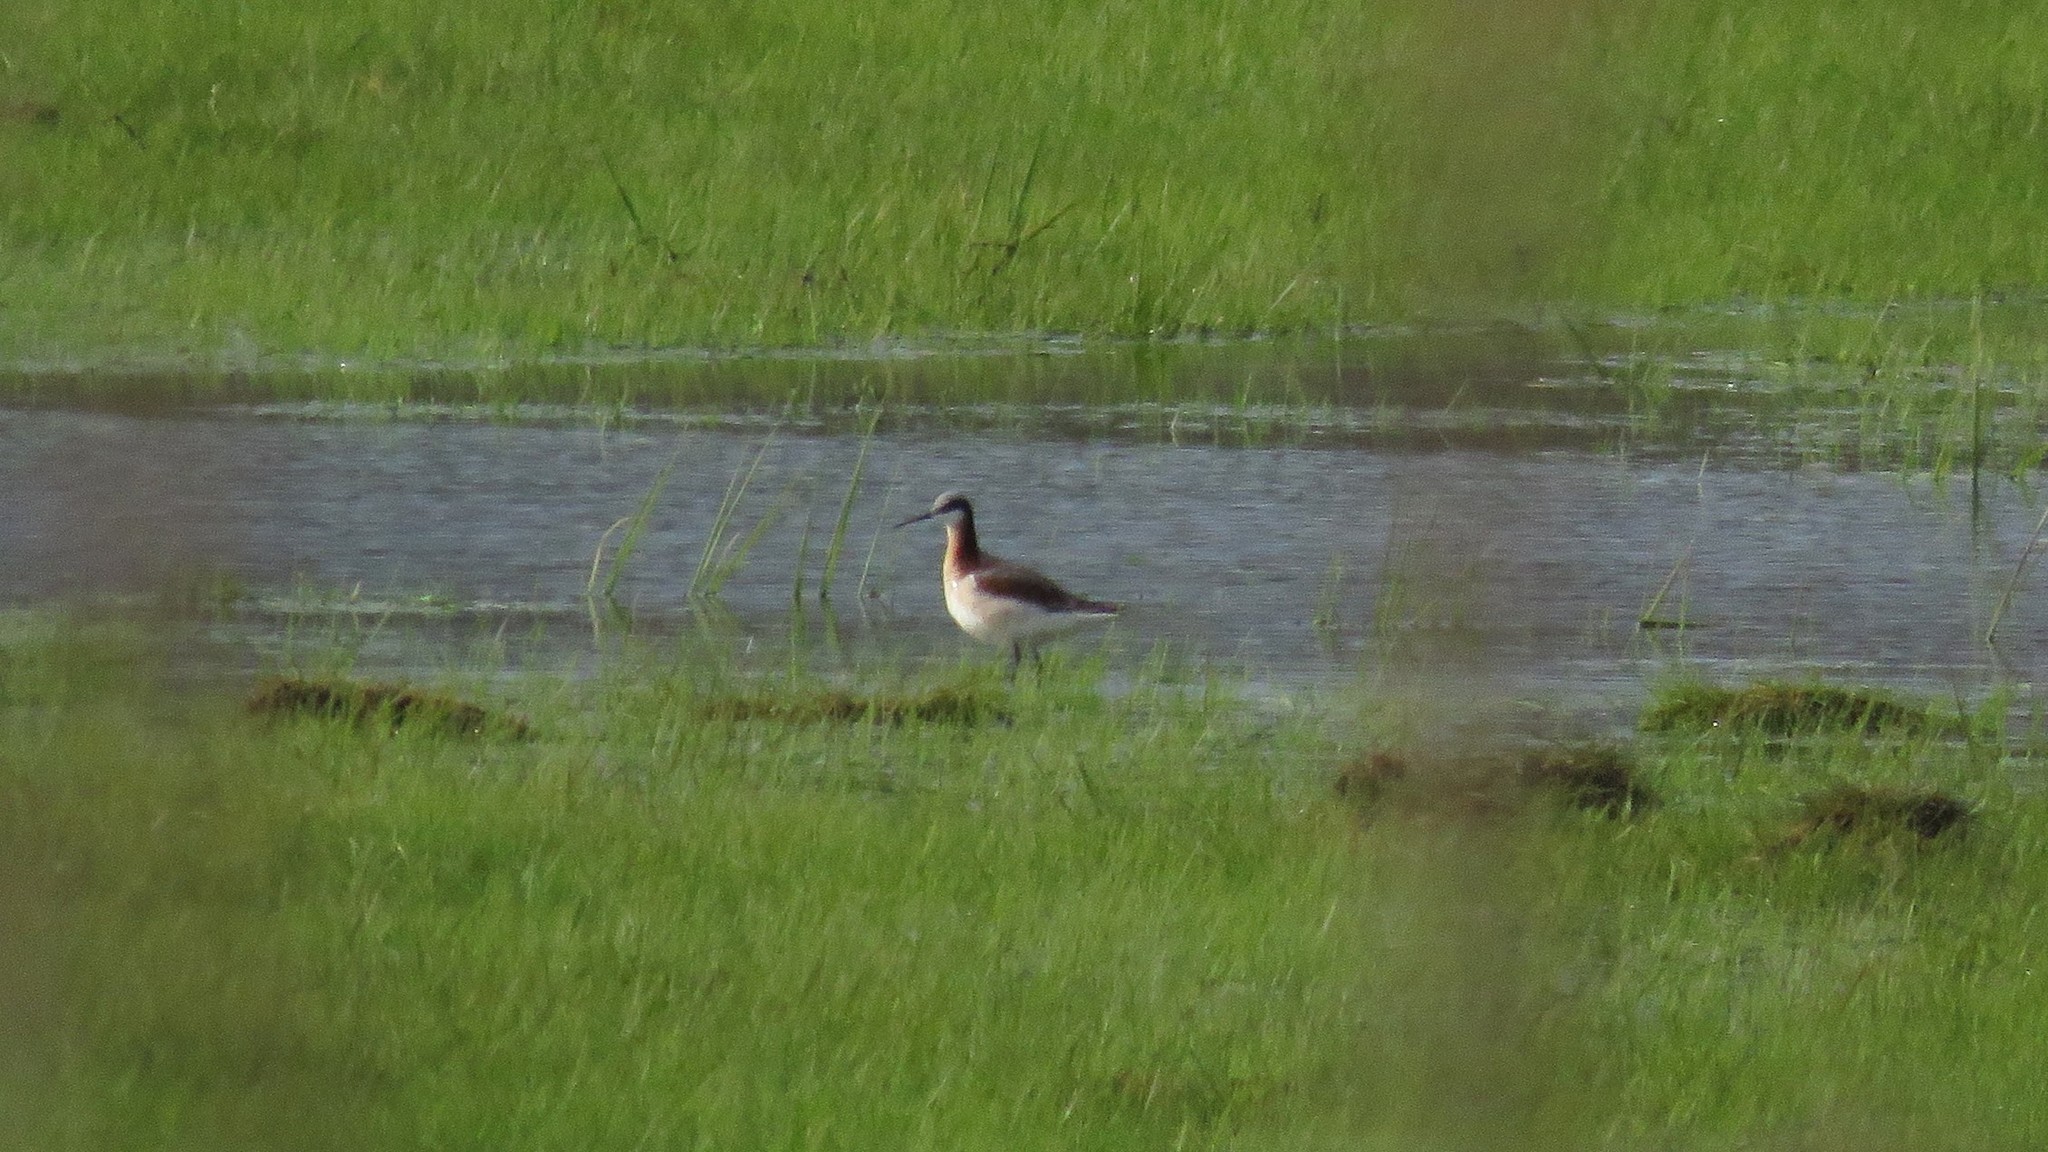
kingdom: Animalia
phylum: Chordata
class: Aves
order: Charadriiformes
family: Scolopacidae
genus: Phalaropus
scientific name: Phalaropus tricolor
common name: Wilson's phalarope
